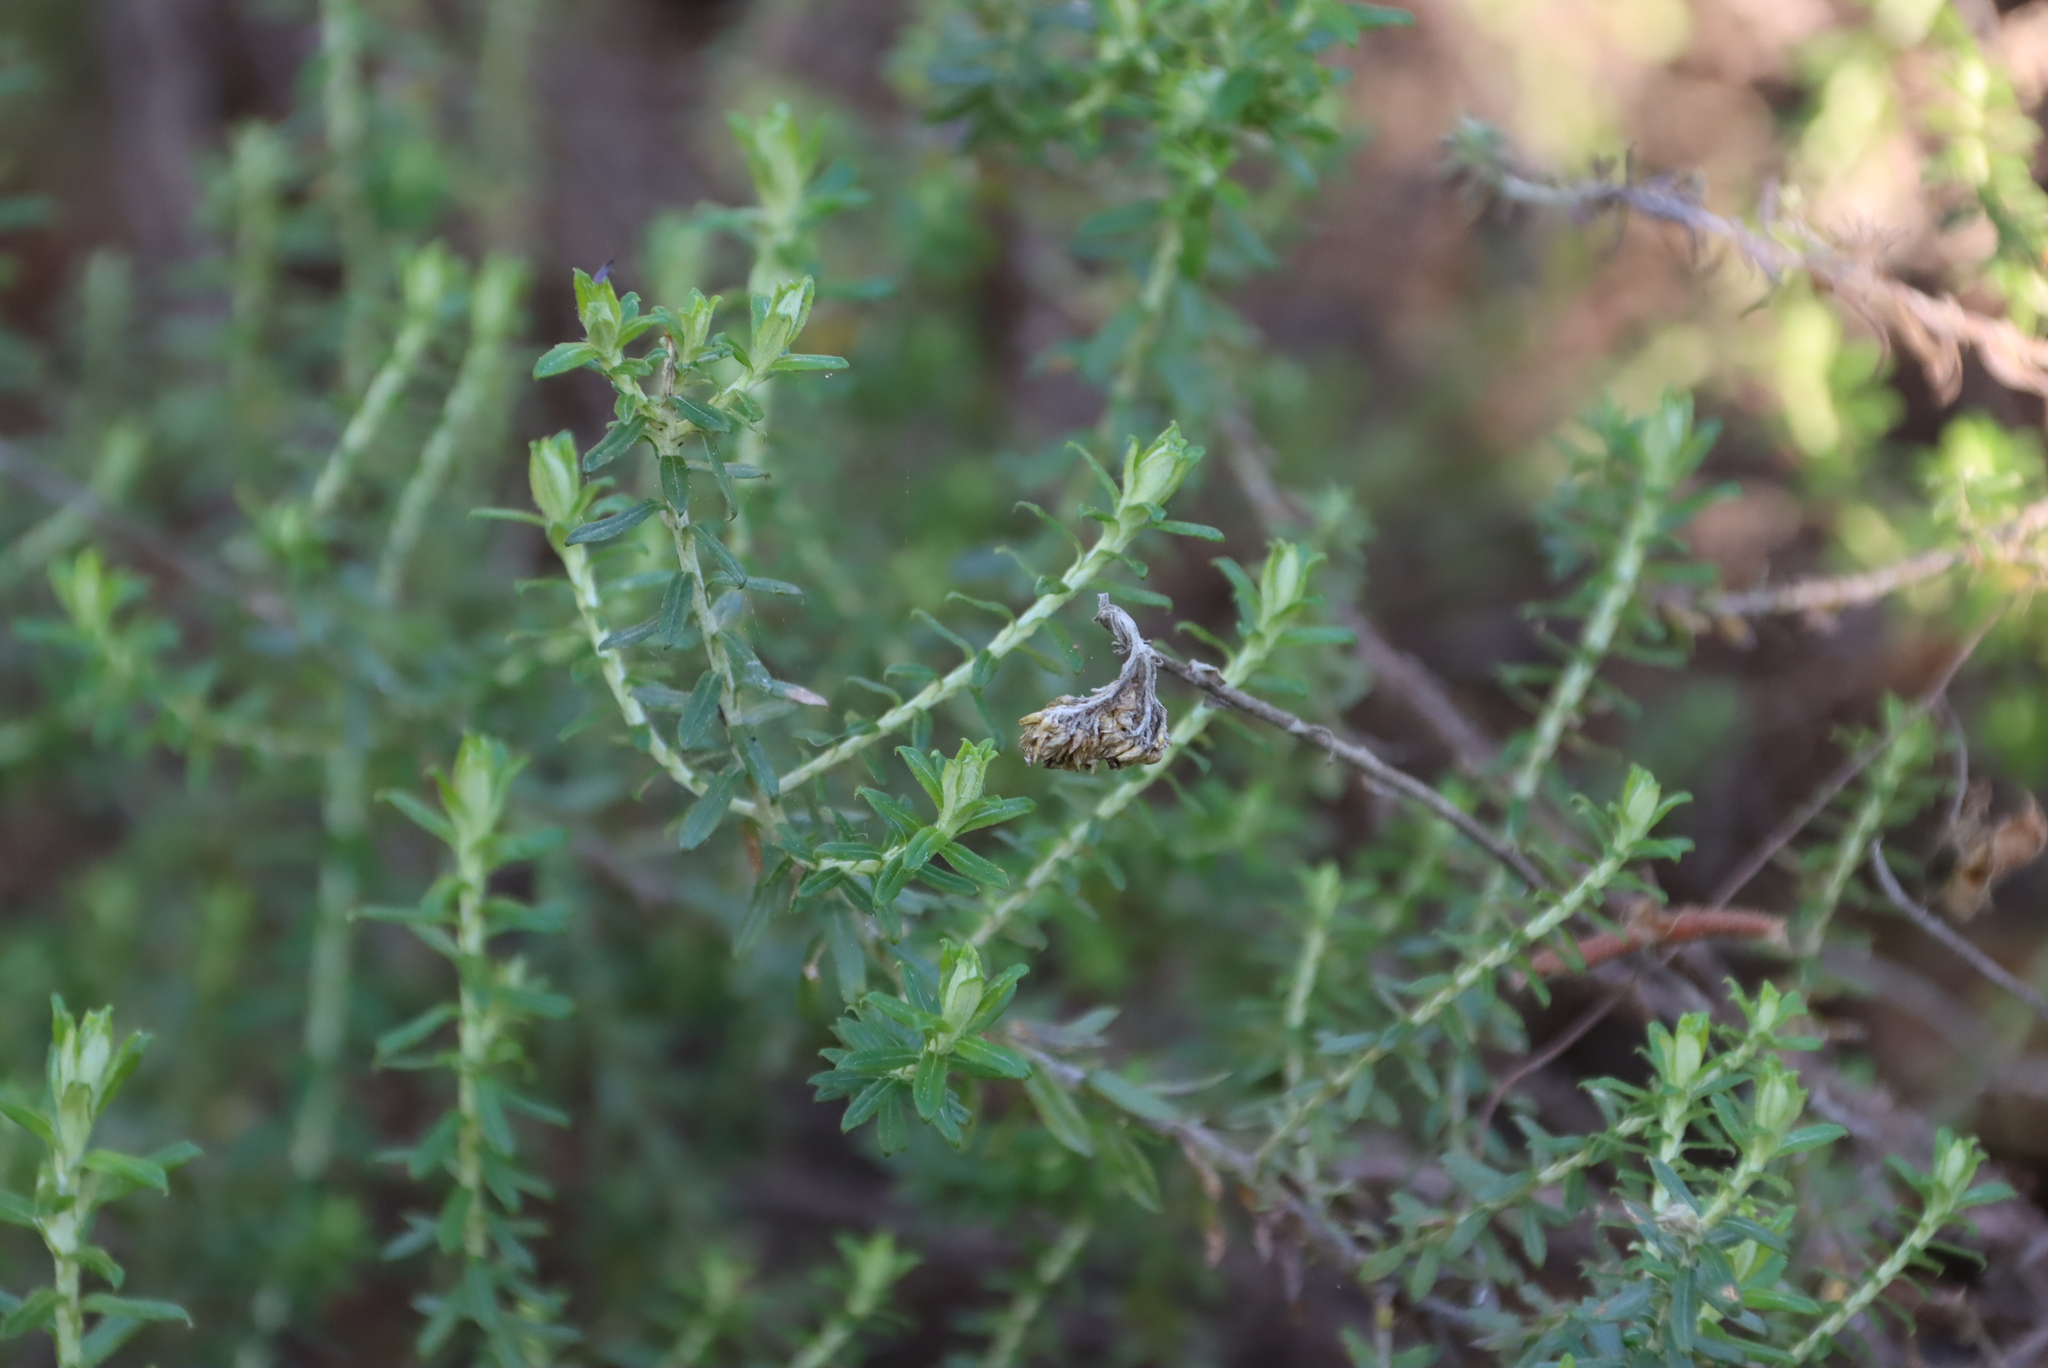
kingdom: Plantae
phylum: Tracheophyta
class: Magnoliopsida
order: Asterales
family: Asteraceae
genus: Helichrysum
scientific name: Helichrysum cymosum
